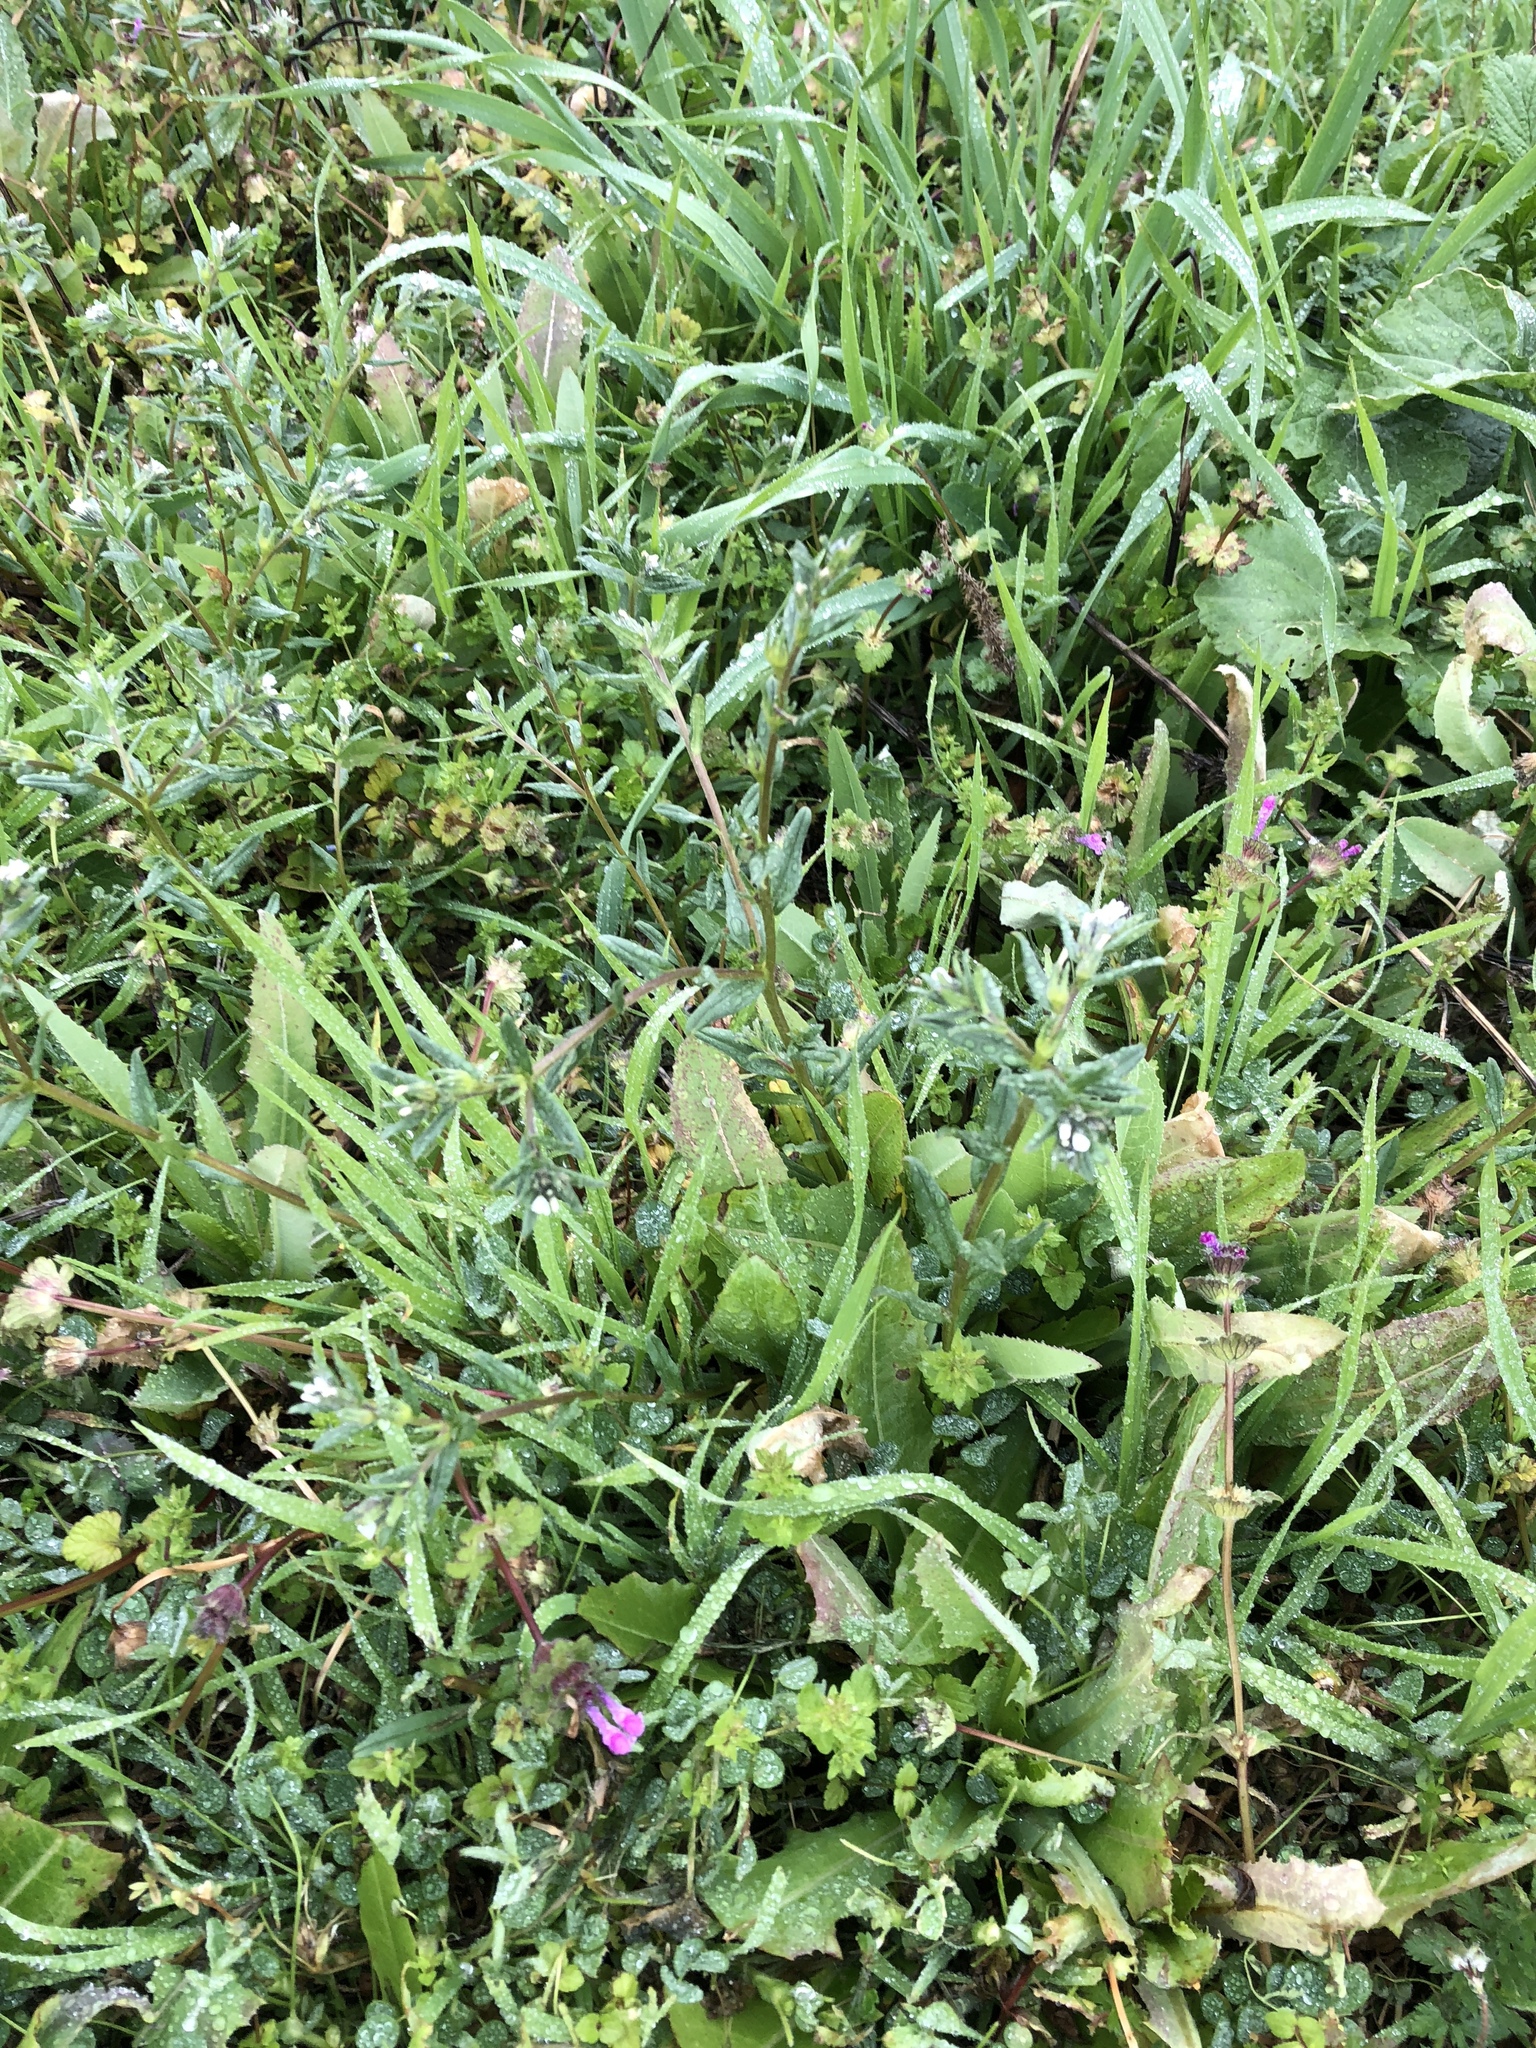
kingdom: Plantae
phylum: Tracheophyta
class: Magnoliopsida
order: Boraginales
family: Boraginaceae
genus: Buglossoides
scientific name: Buglossoides arvensis
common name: Corn gromwell
